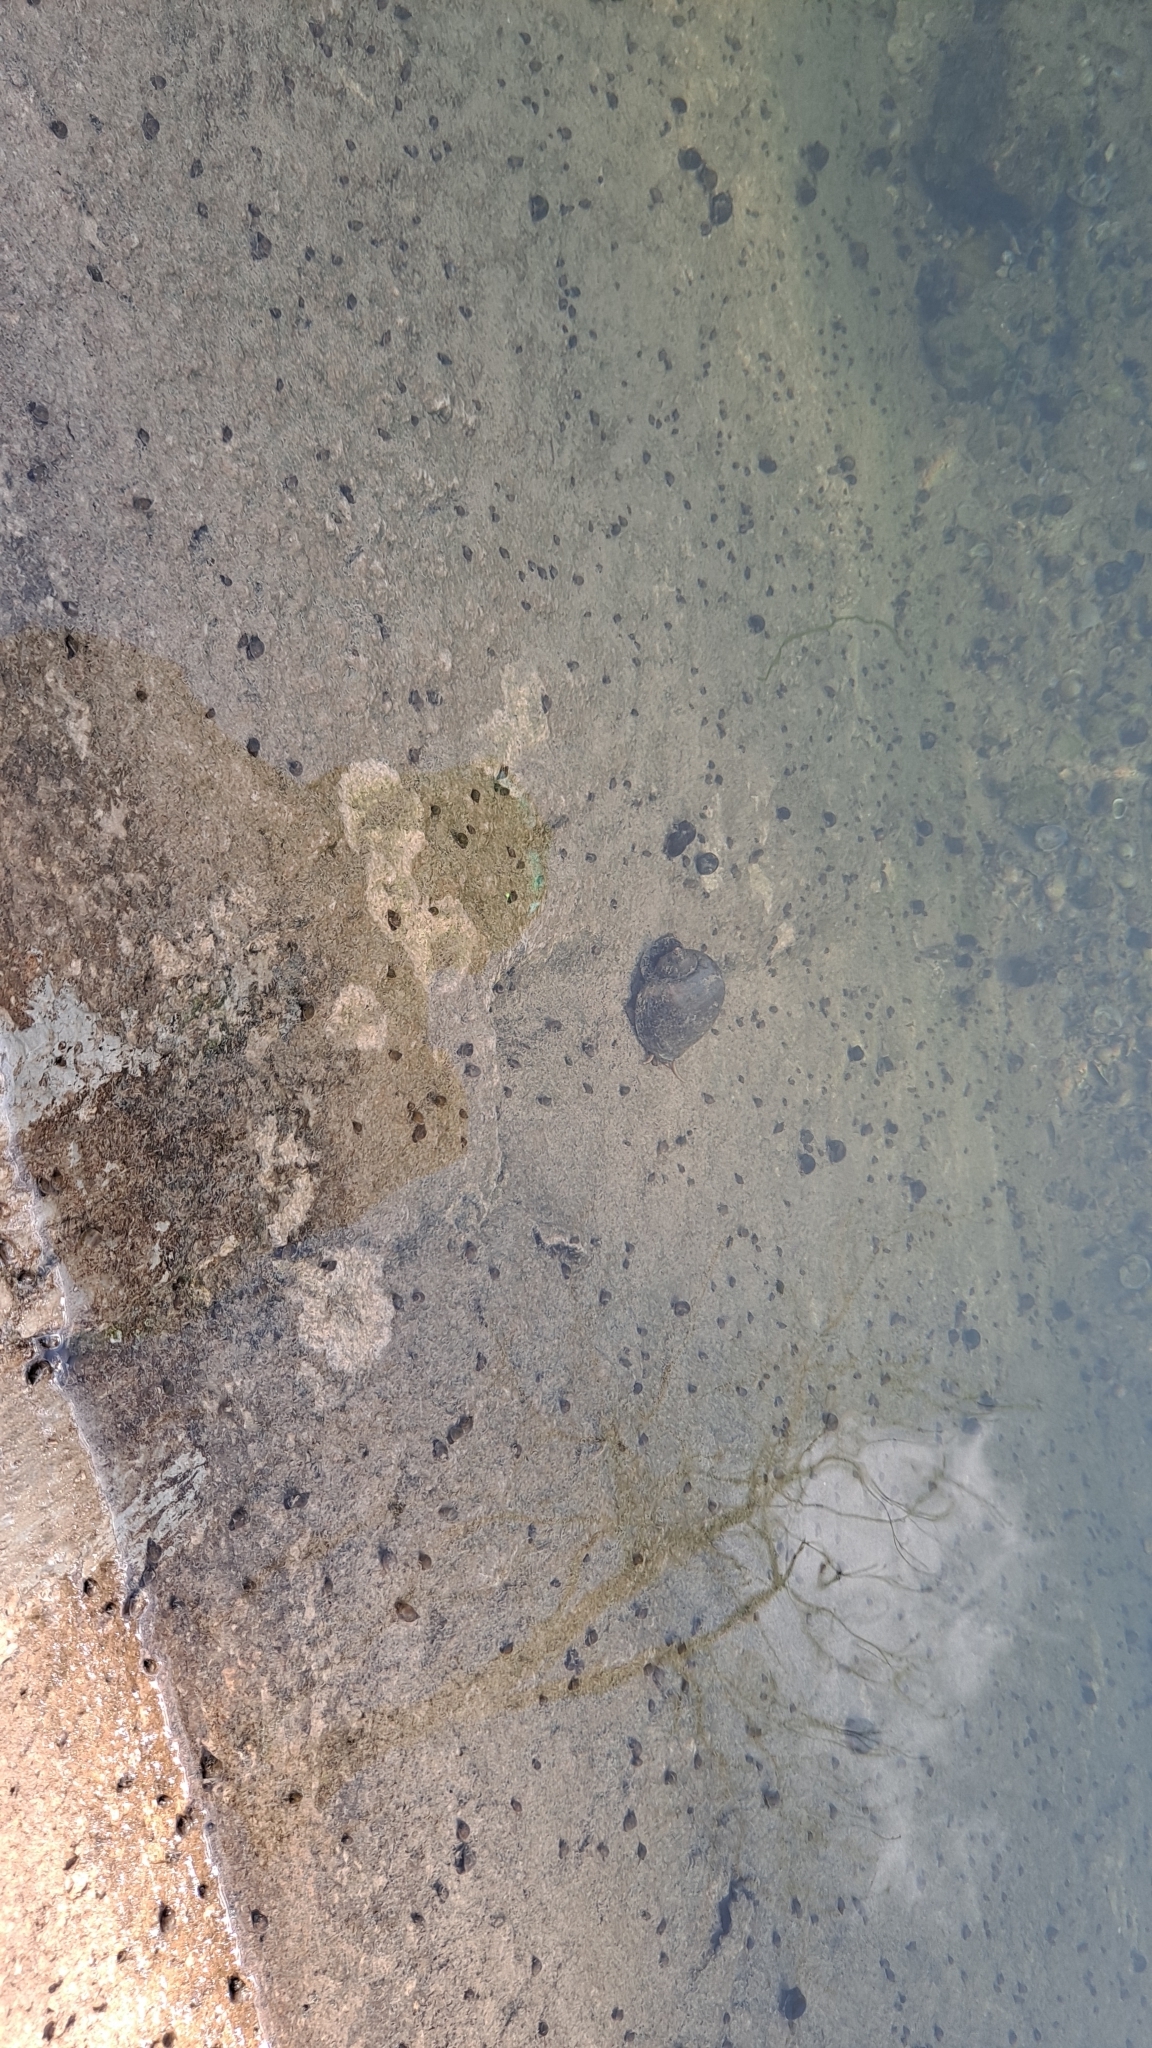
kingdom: Animalia
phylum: Mollusca
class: Gastropoda
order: Architaenioglossa
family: Ampullariidae
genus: Pomacea
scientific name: Pomacea maculata
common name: Giant applesnail
